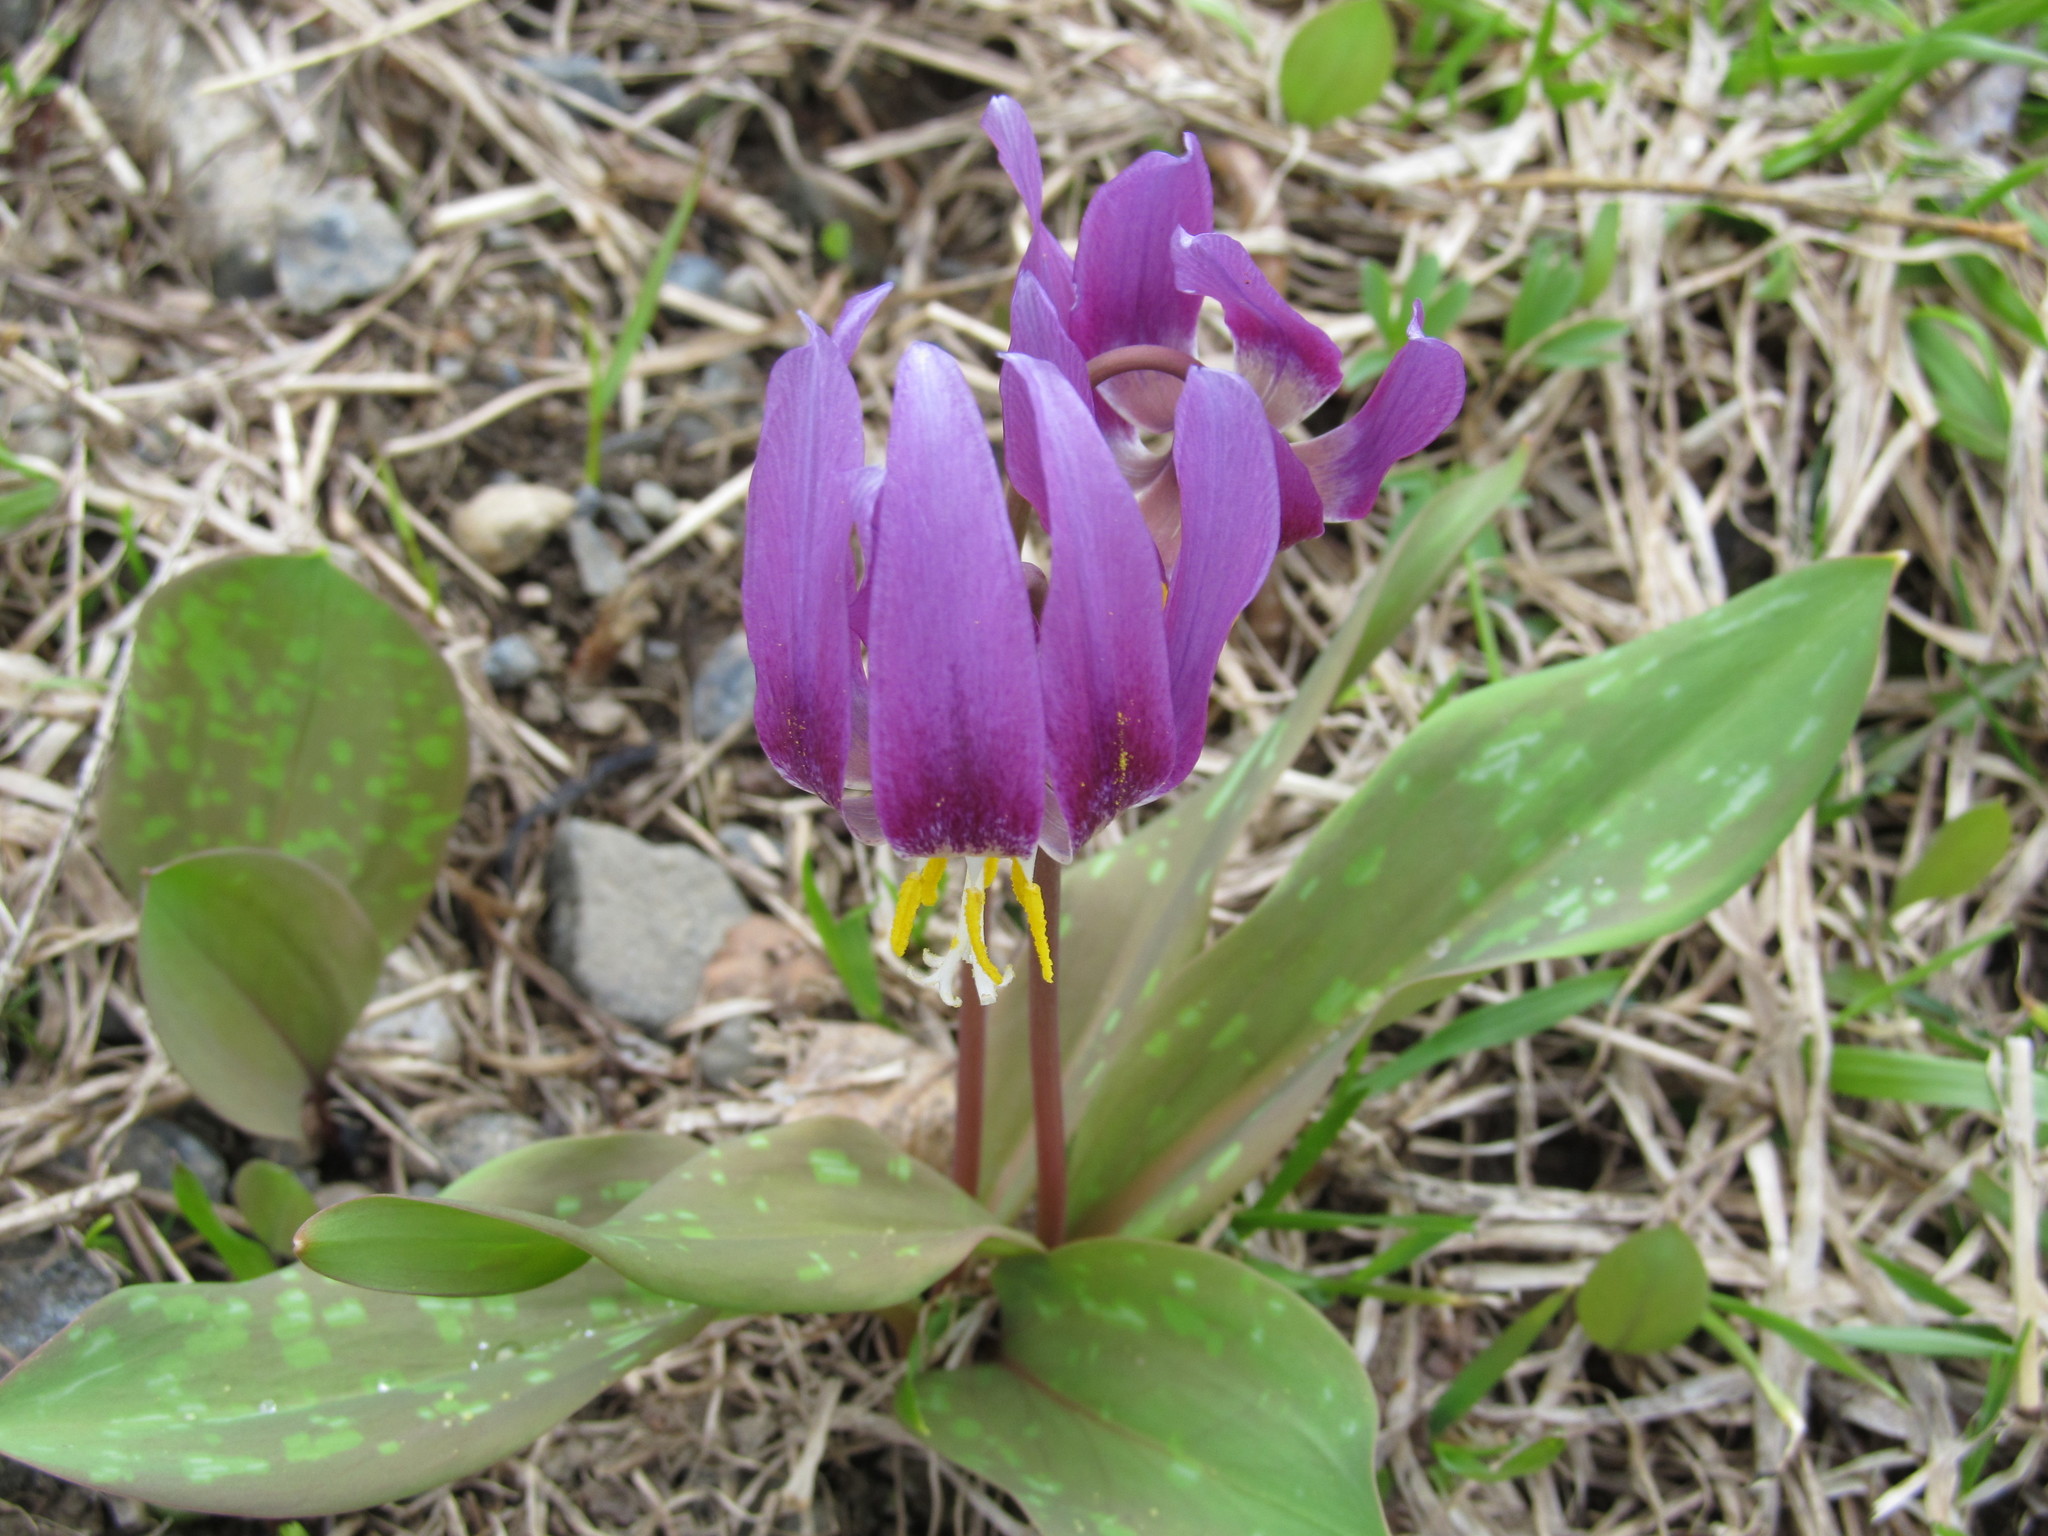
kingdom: Plantae
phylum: Tracheophyta
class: Liliopsida
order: Liliales
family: Liliaceae
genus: Erythronium
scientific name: Erythronium sibiricum
